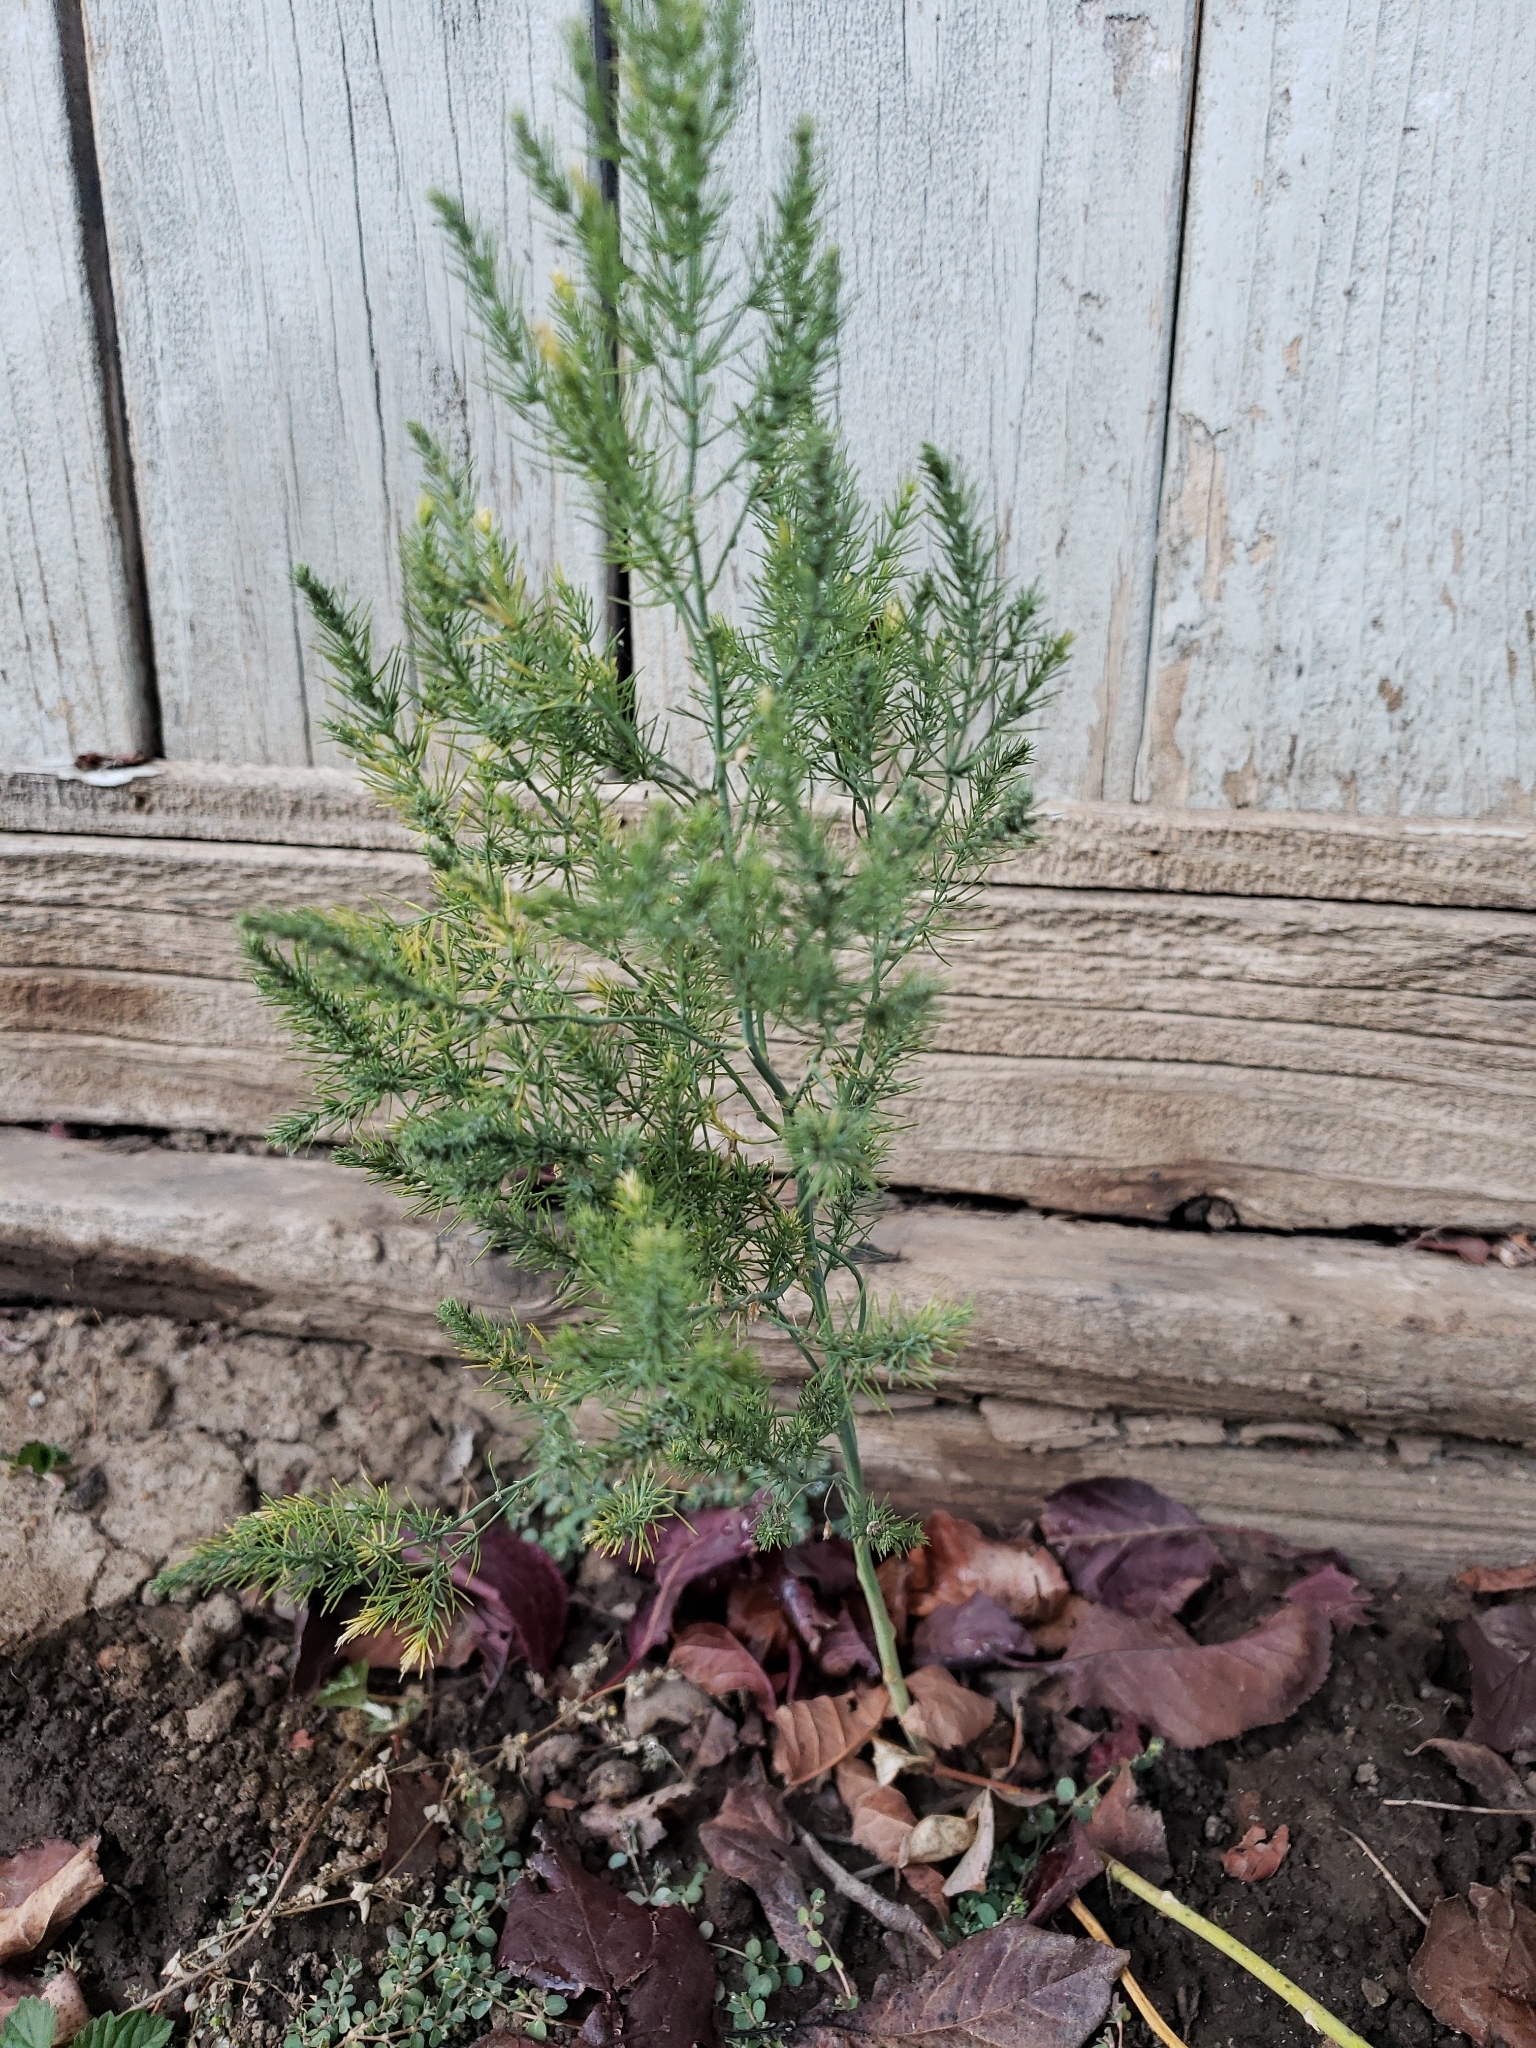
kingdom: Plantae
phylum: Tracheophyta
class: Liliopsida
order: Asparagales
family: Asparagaceae
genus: Asparagus
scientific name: Asparagus officinalis
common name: Garden asparagus
